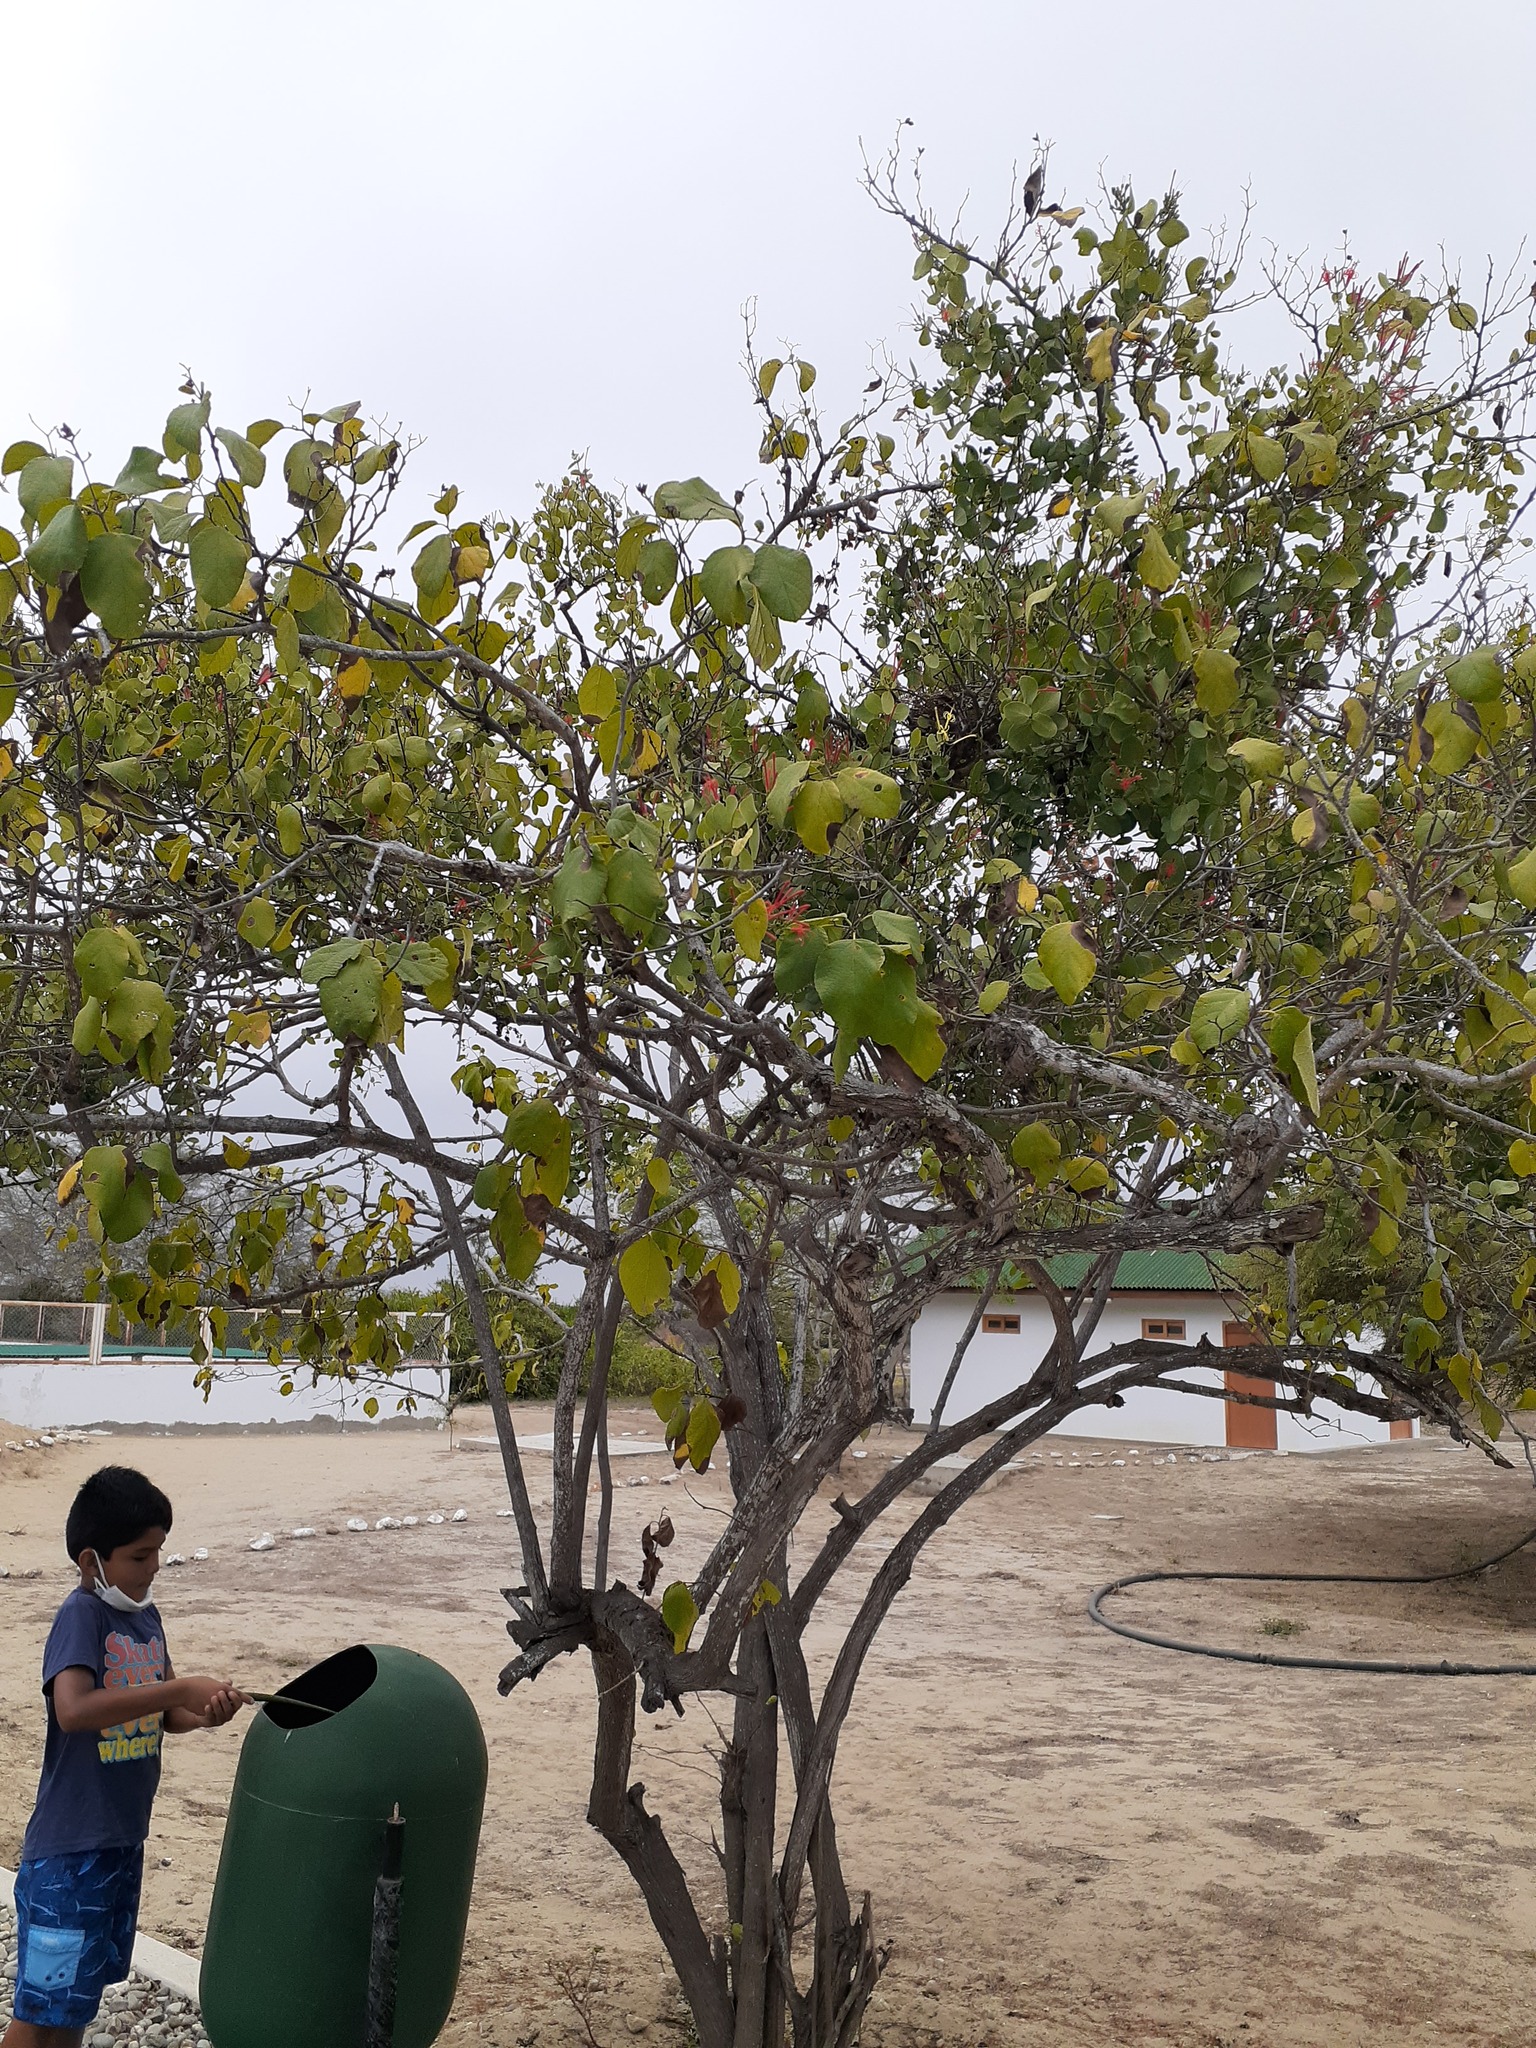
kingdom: Plantae
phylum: Tracheophyta
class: Magnoliopsida
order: Boraginales
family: Cordiaceae
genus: Cordia
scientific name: Cordia lutea
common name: Yellow geiger
